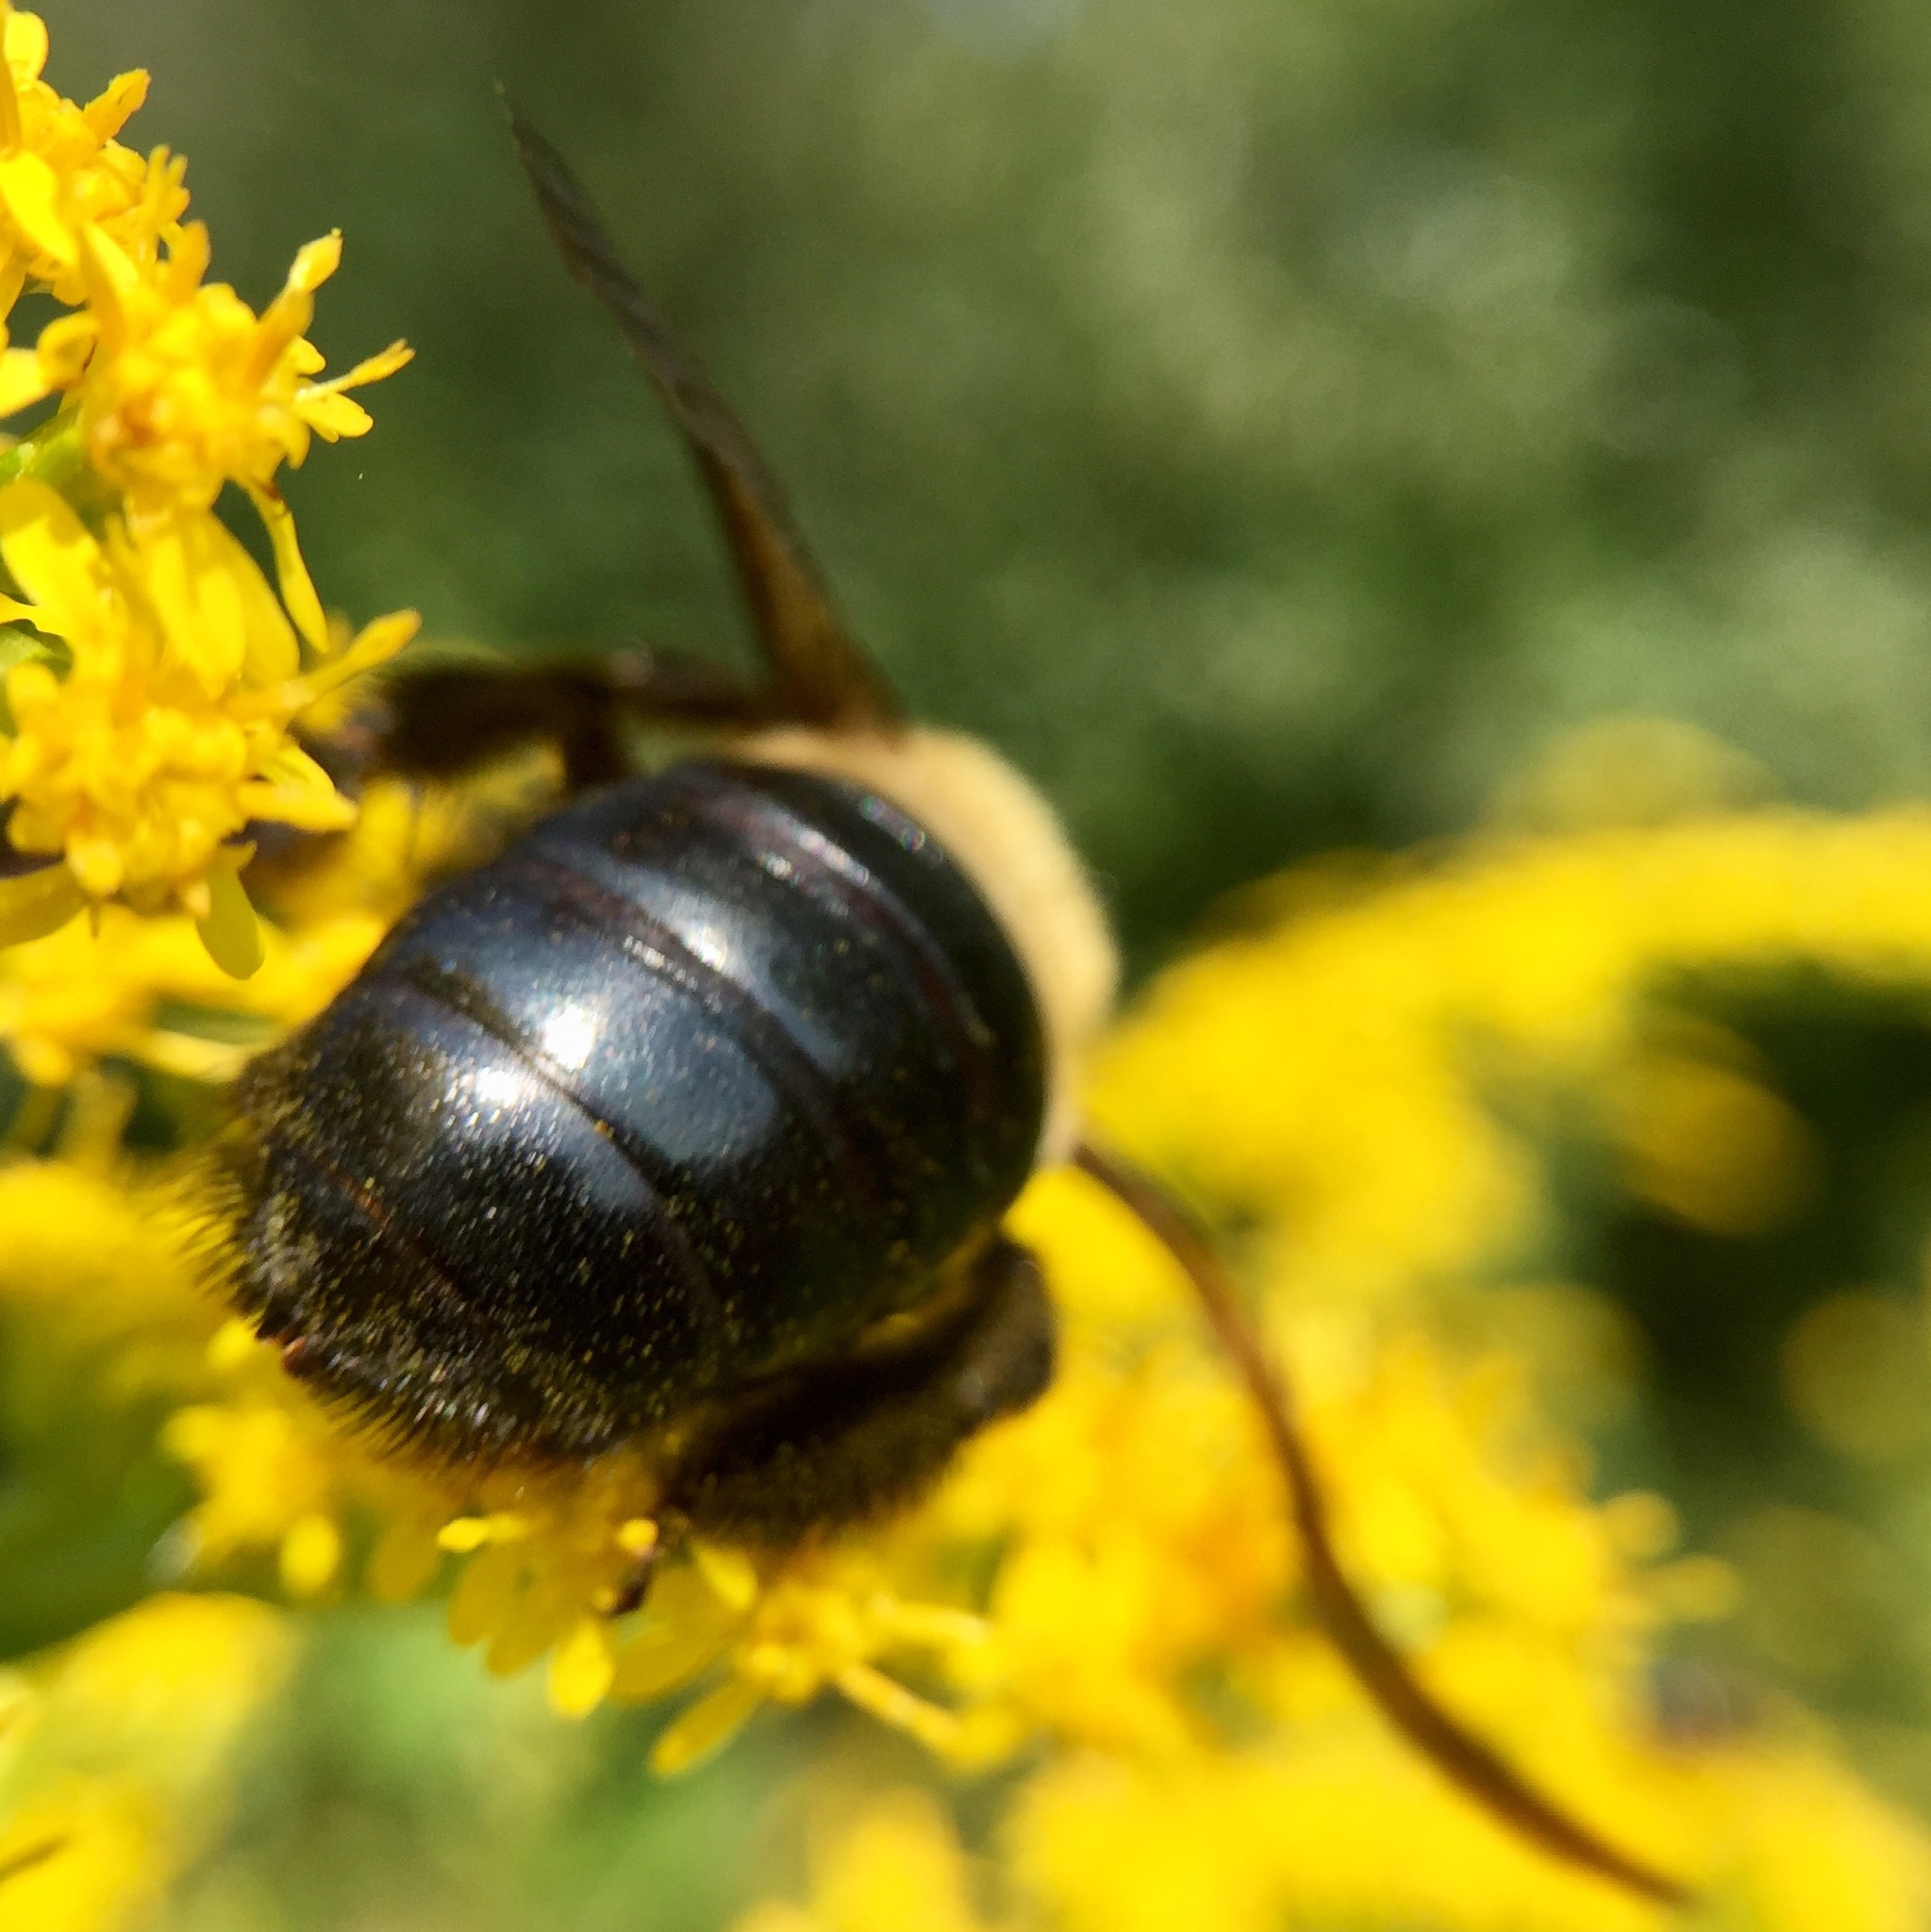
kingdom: Animalia
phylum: Arthropoda
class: Insecta
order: Hymenoptera
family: Apidae
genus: Xylocopa
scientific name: Xylocopa virginica
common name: Carpenter bee
